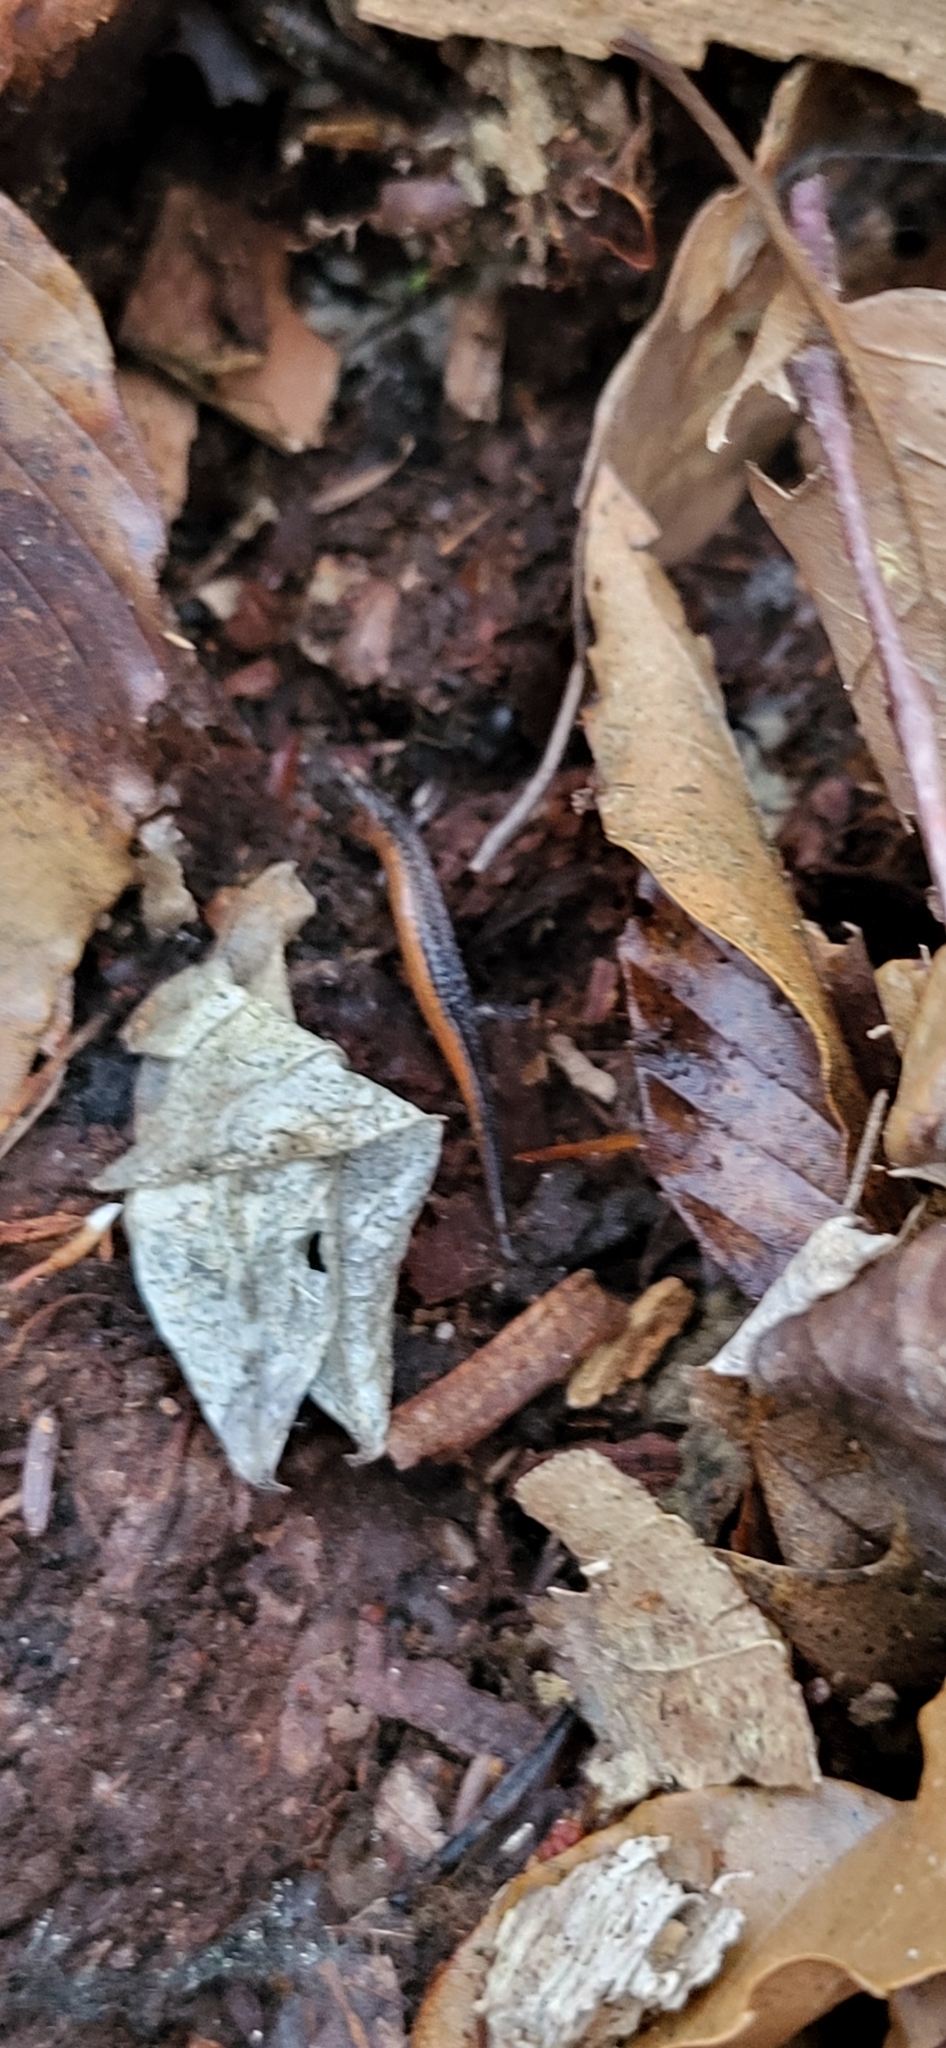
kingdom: Animalia
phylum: Chordata
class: Amphibia
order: Caudata
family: Plethodontidae
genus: Plethodon
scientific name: Plethodon cinereus
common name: Redback salamander
